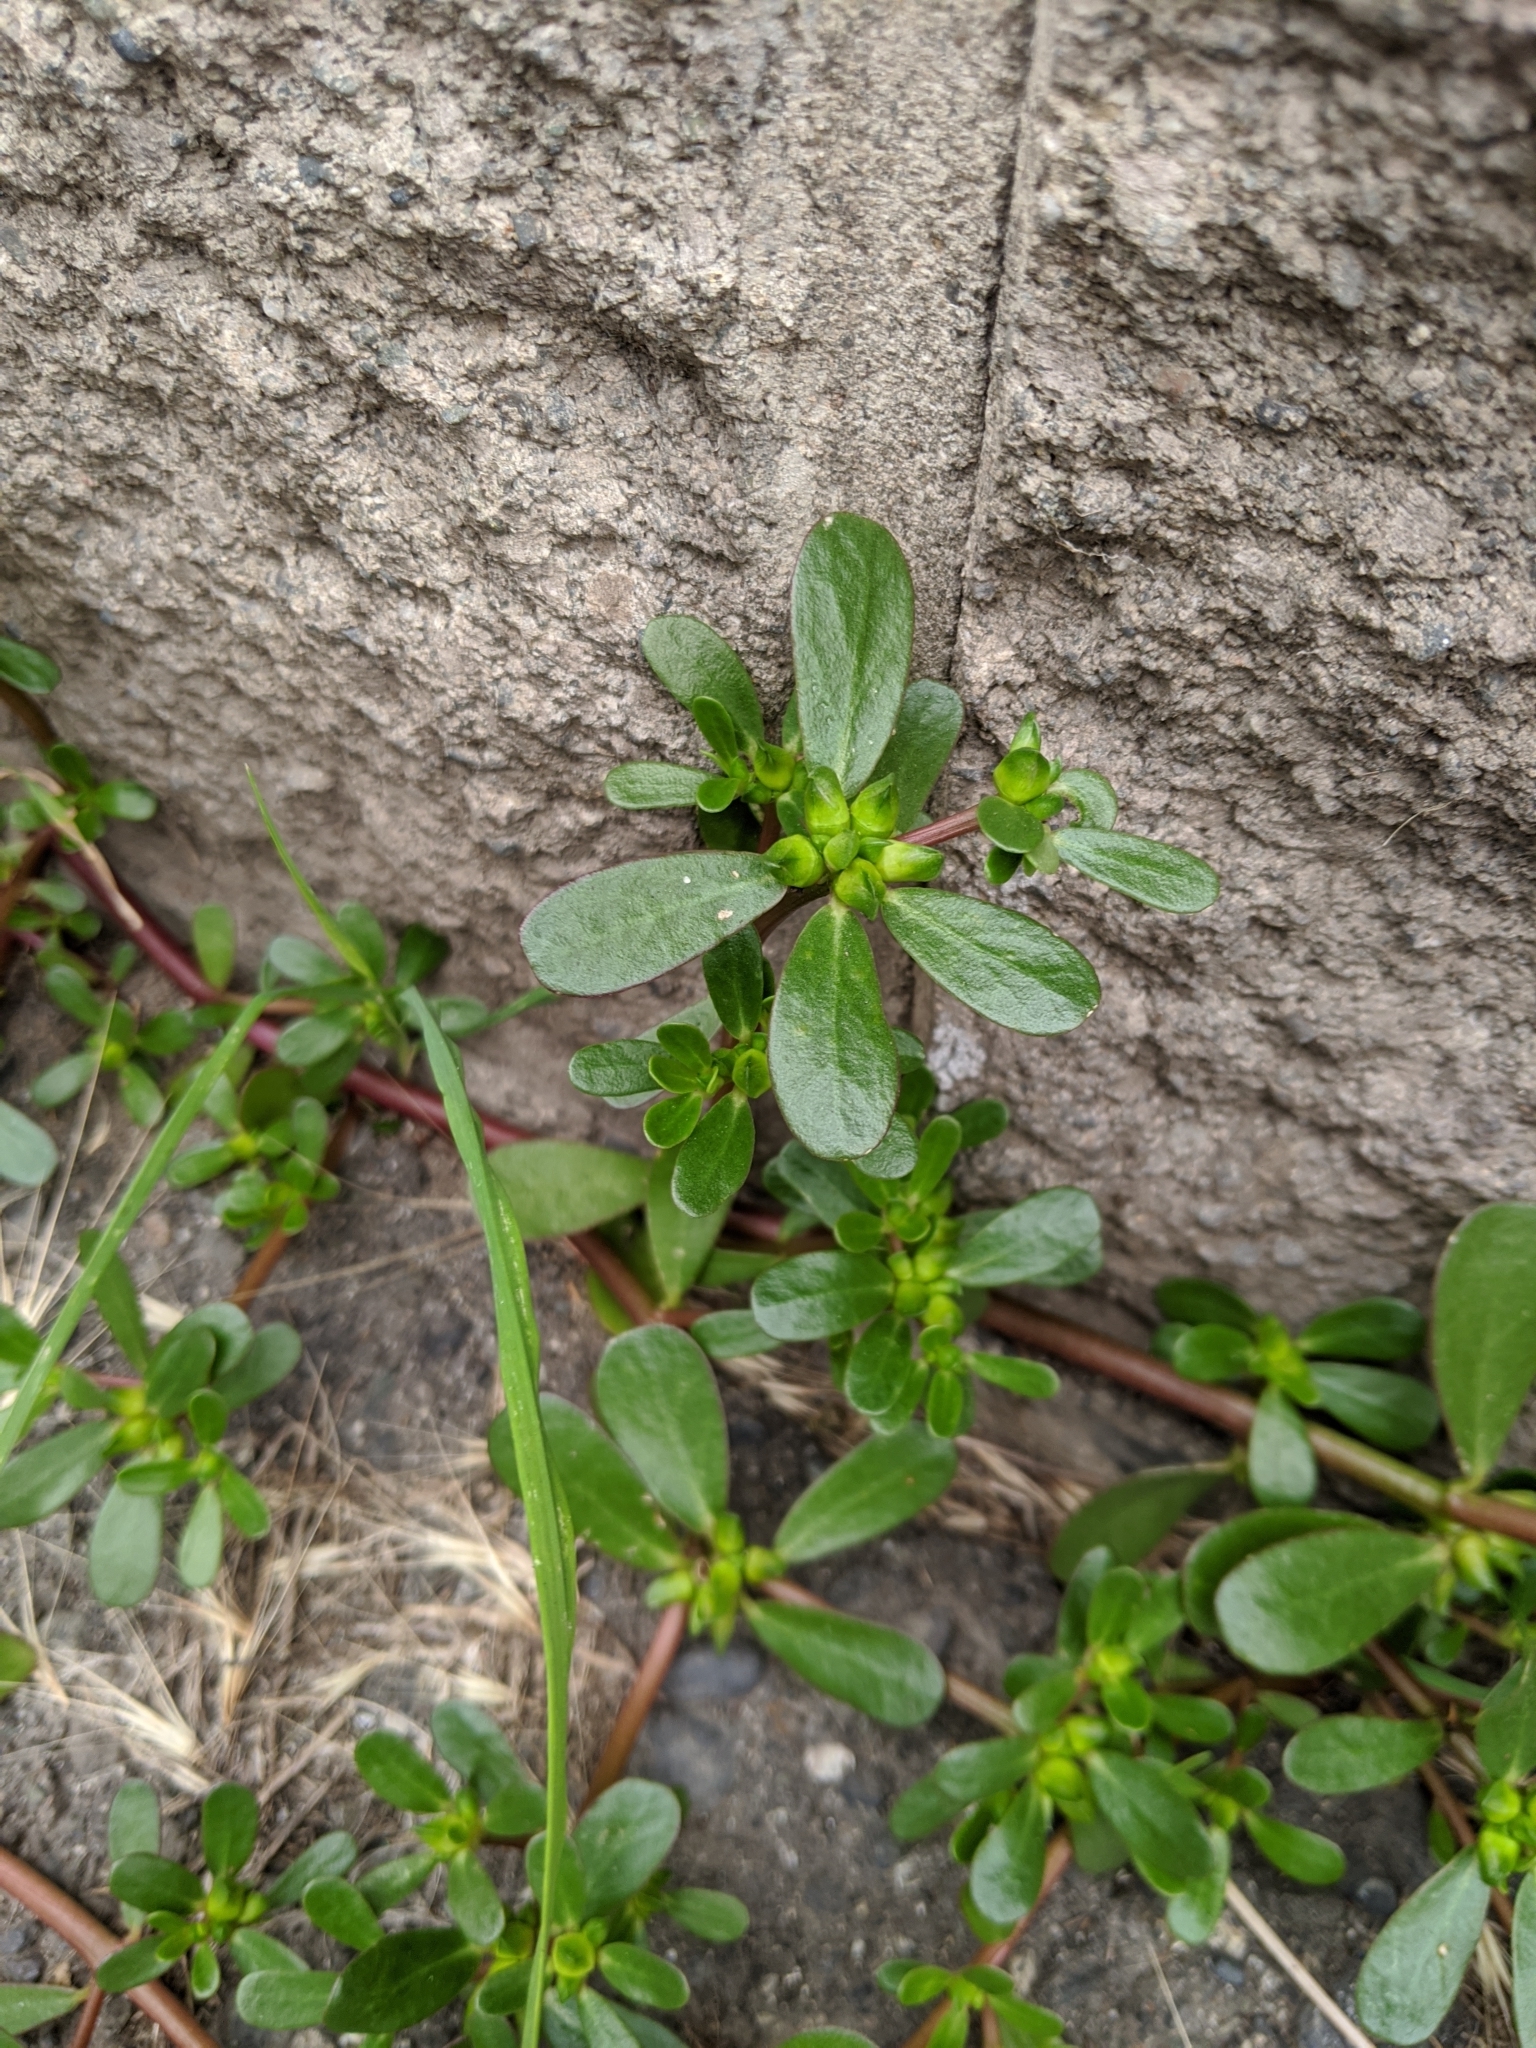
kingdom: Plantae
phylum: Tracheophyta
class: Magnoliopsida
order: Caryophyllales
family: Portulacaceae
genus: Portulaca
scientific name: Portulaca oleracea
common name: Common purslane
